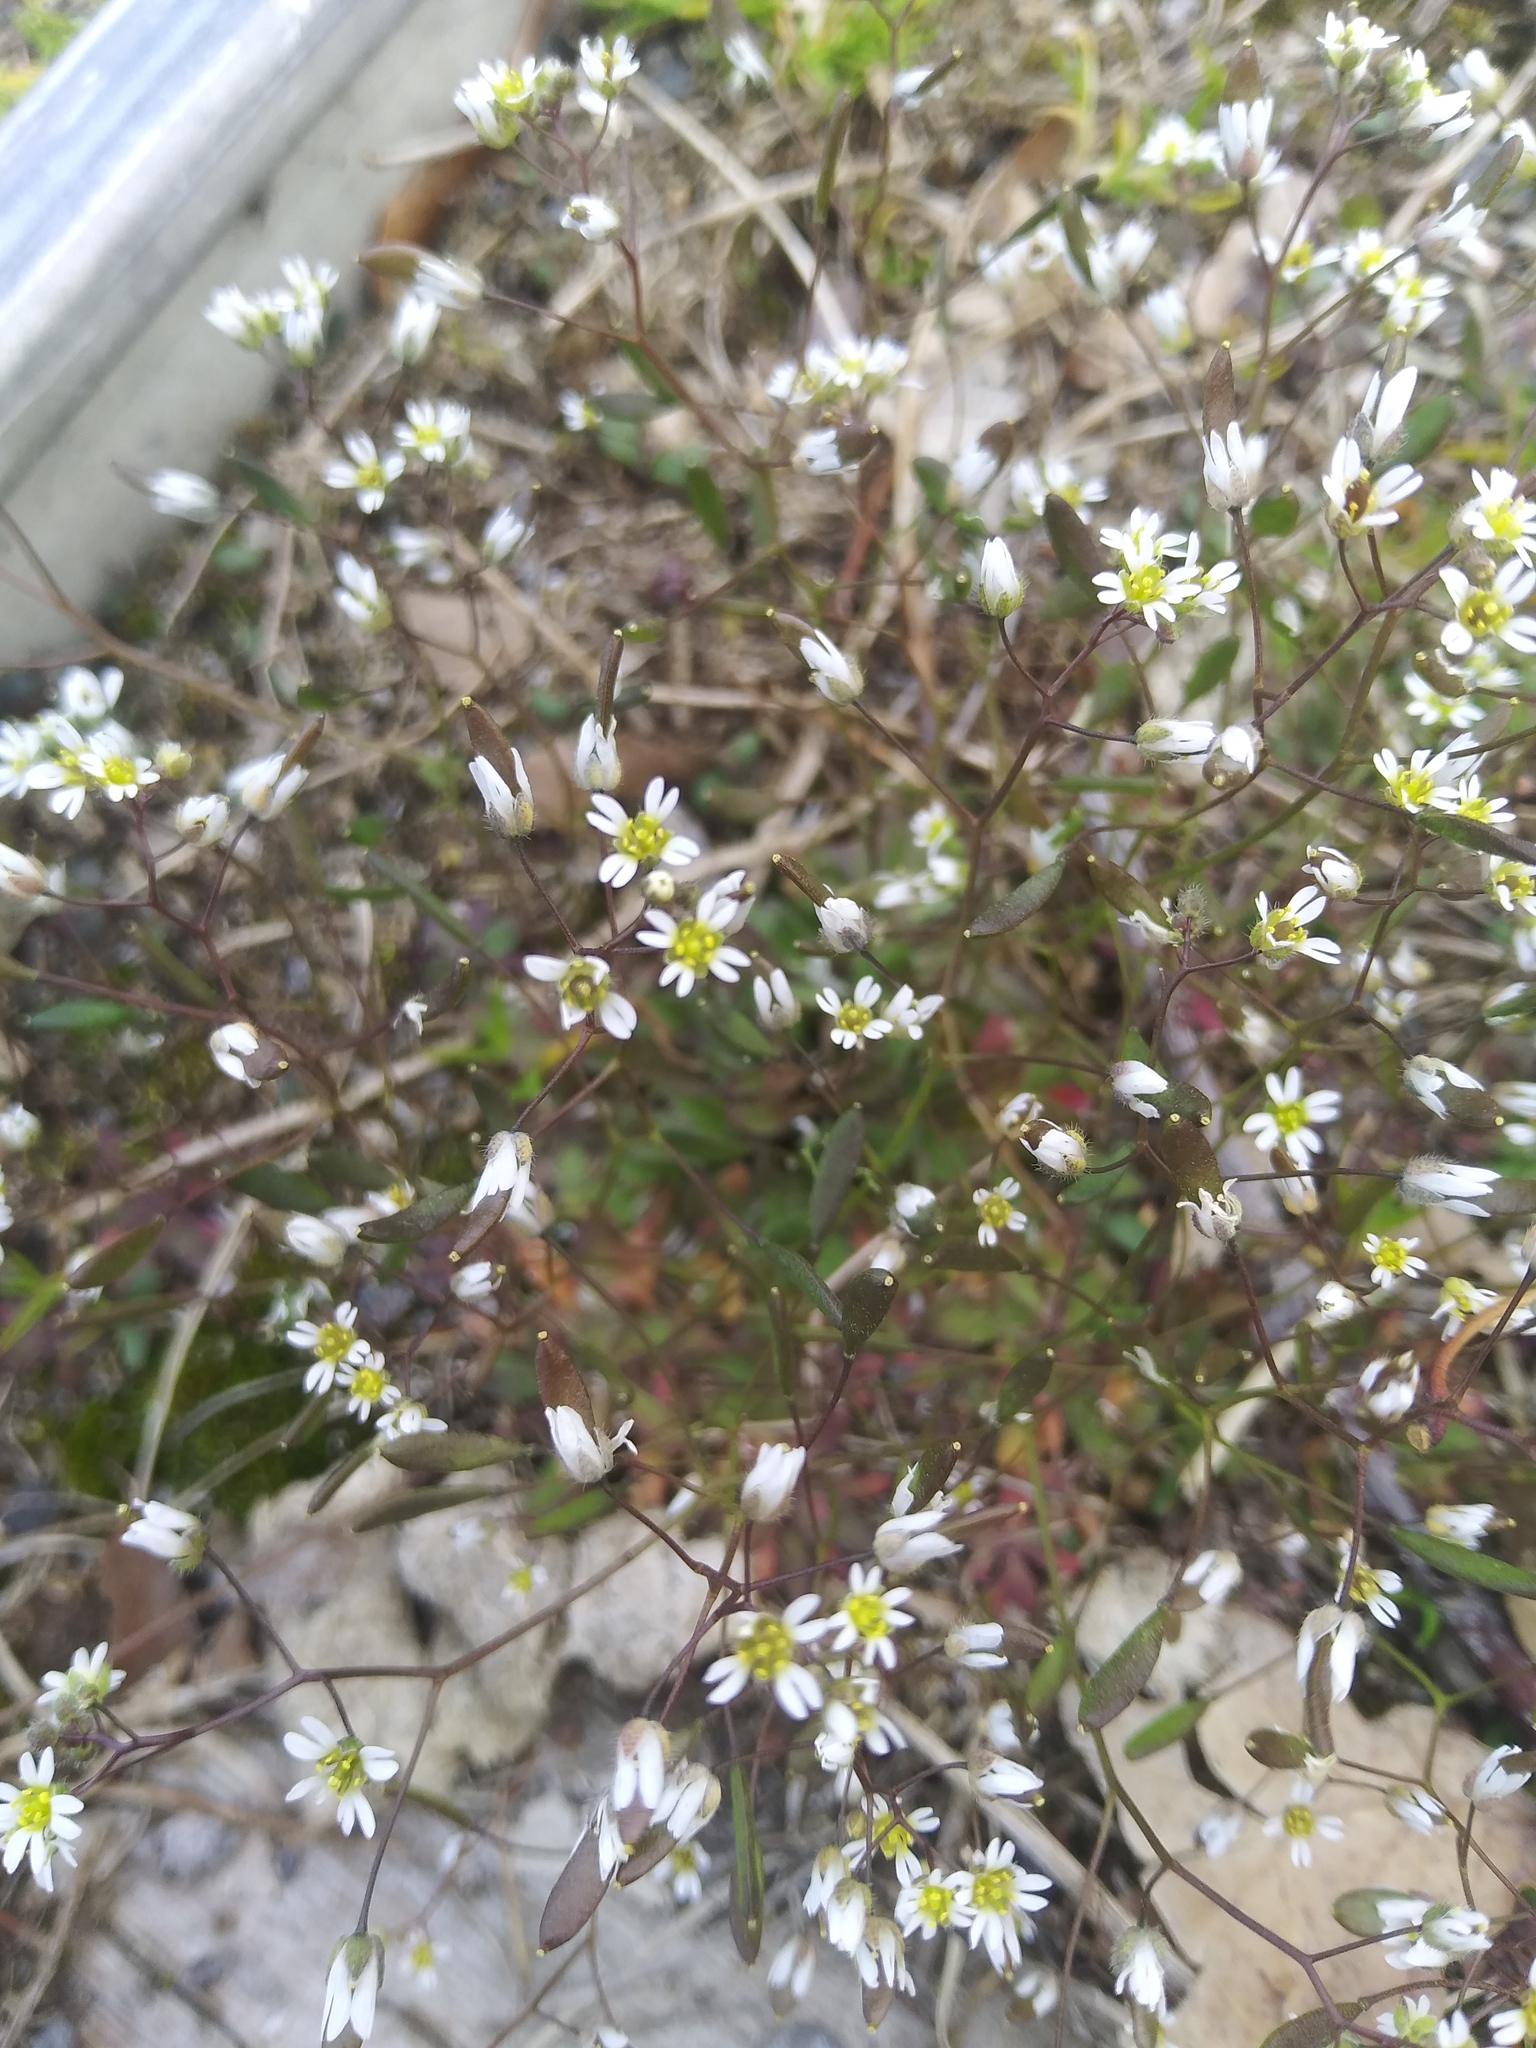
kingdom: Plantae
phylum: Tracheophyta
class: Magnoliopsida
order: Brassicales
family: Brassicaceae
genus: Draba
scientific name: Draba verna
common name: Spring draba
